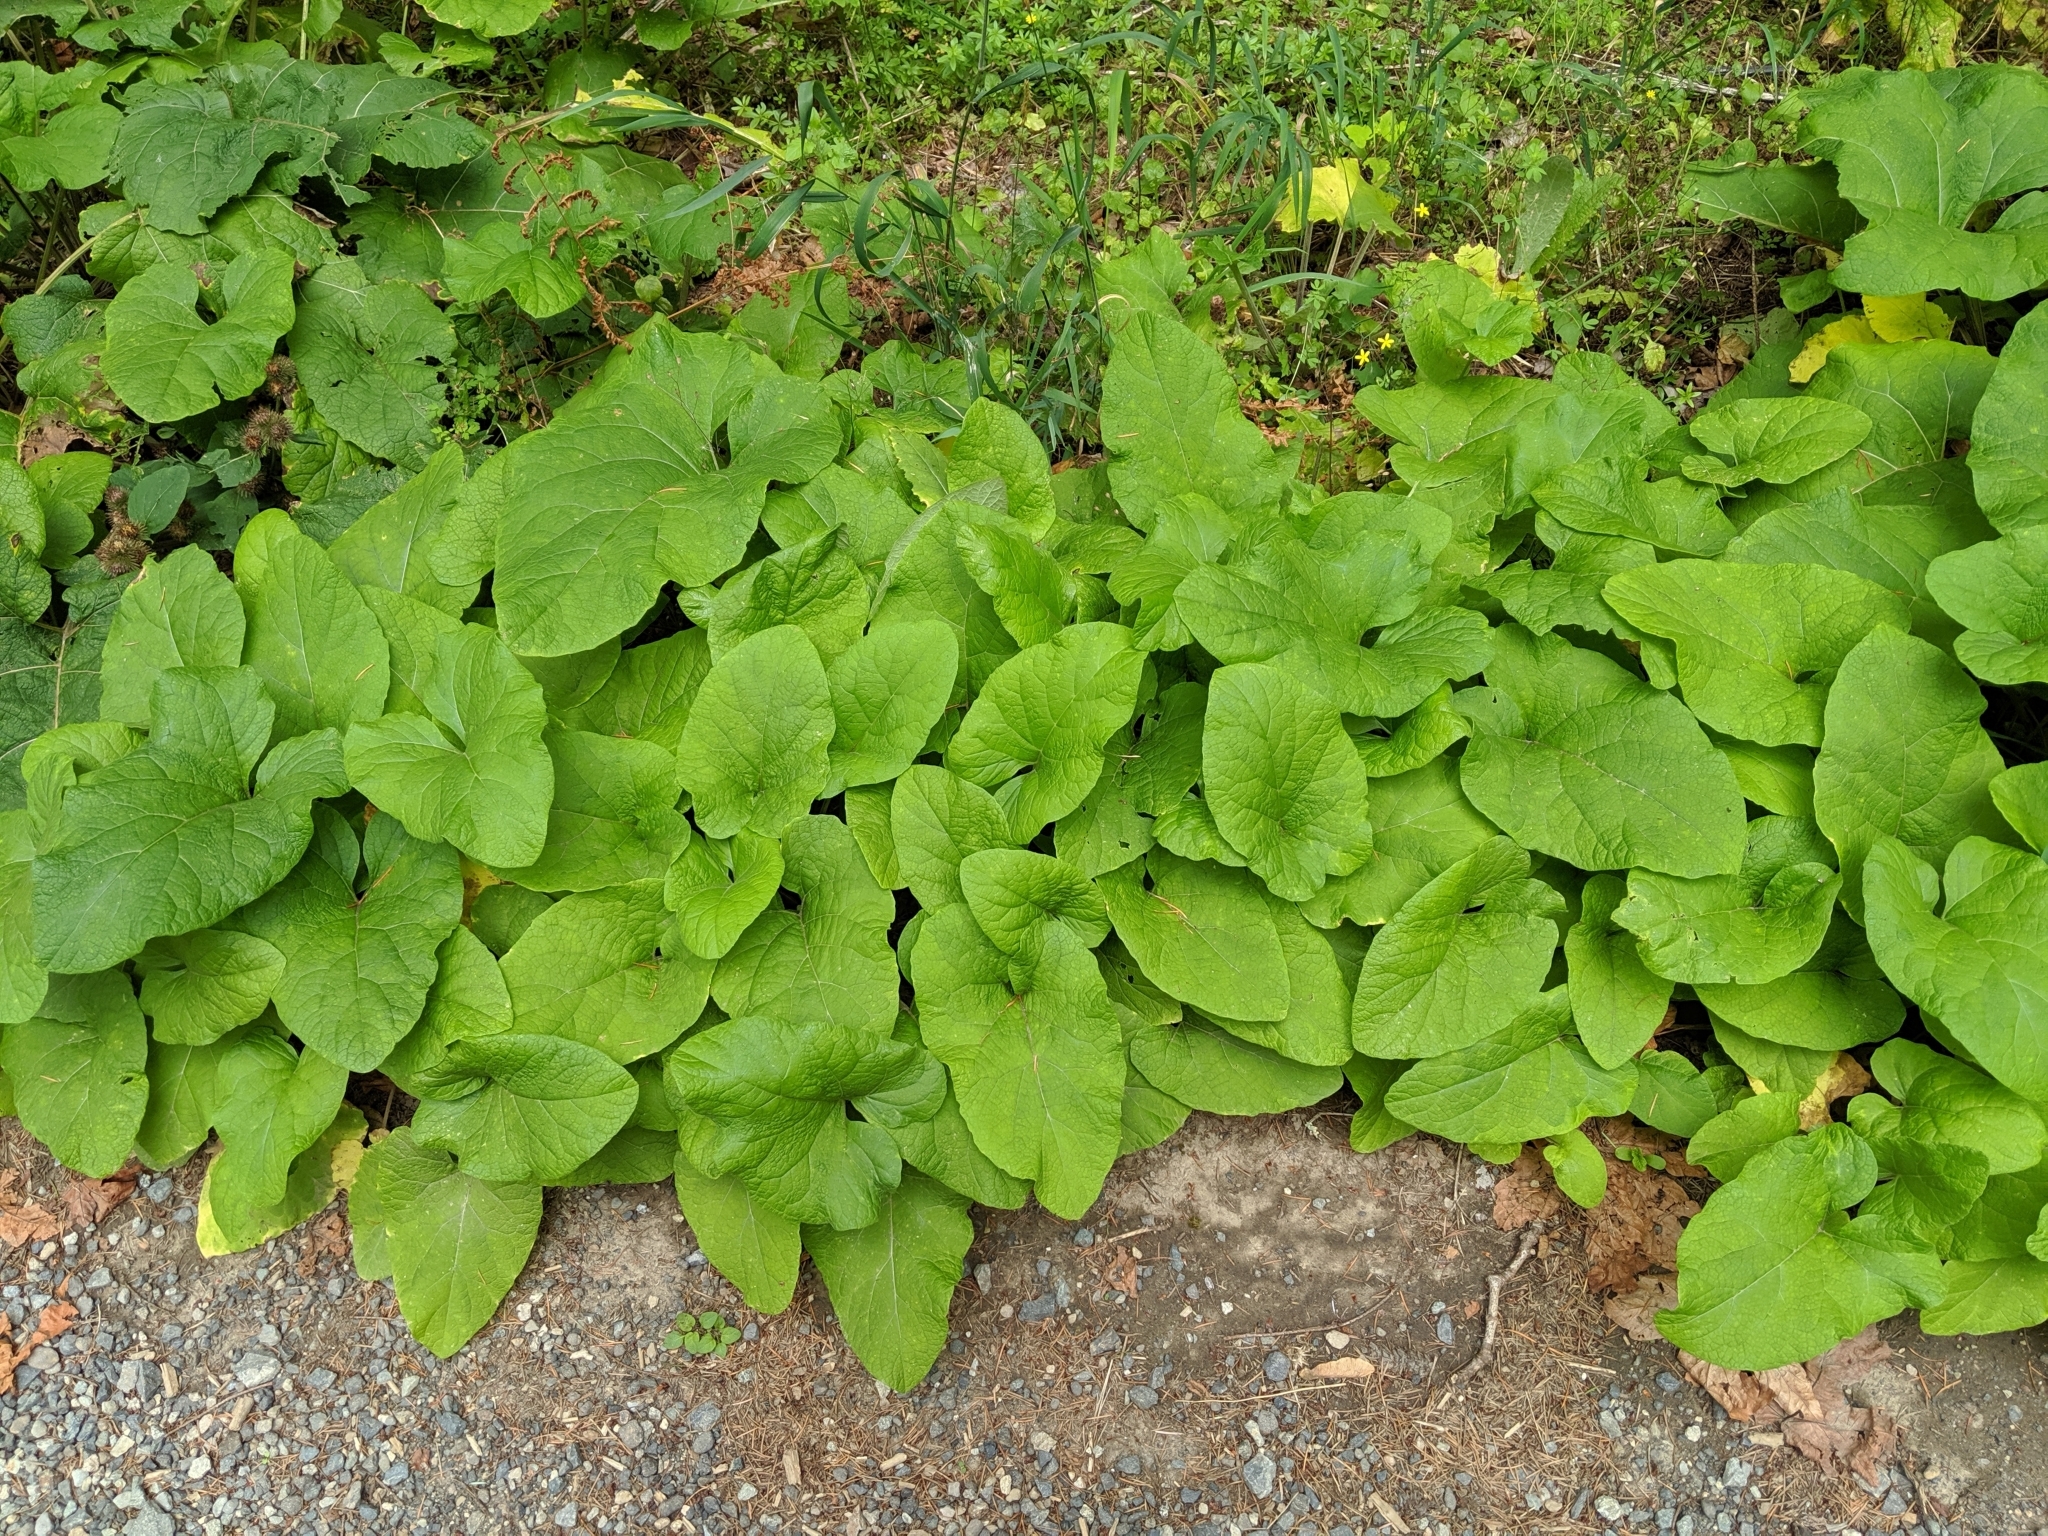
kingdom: Plantae
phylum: Tracheophyta
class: Magnoliopsida
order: Asterales
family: Asteraceae
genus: Arctium
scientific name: Arctium minus
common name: Lesser burdock
